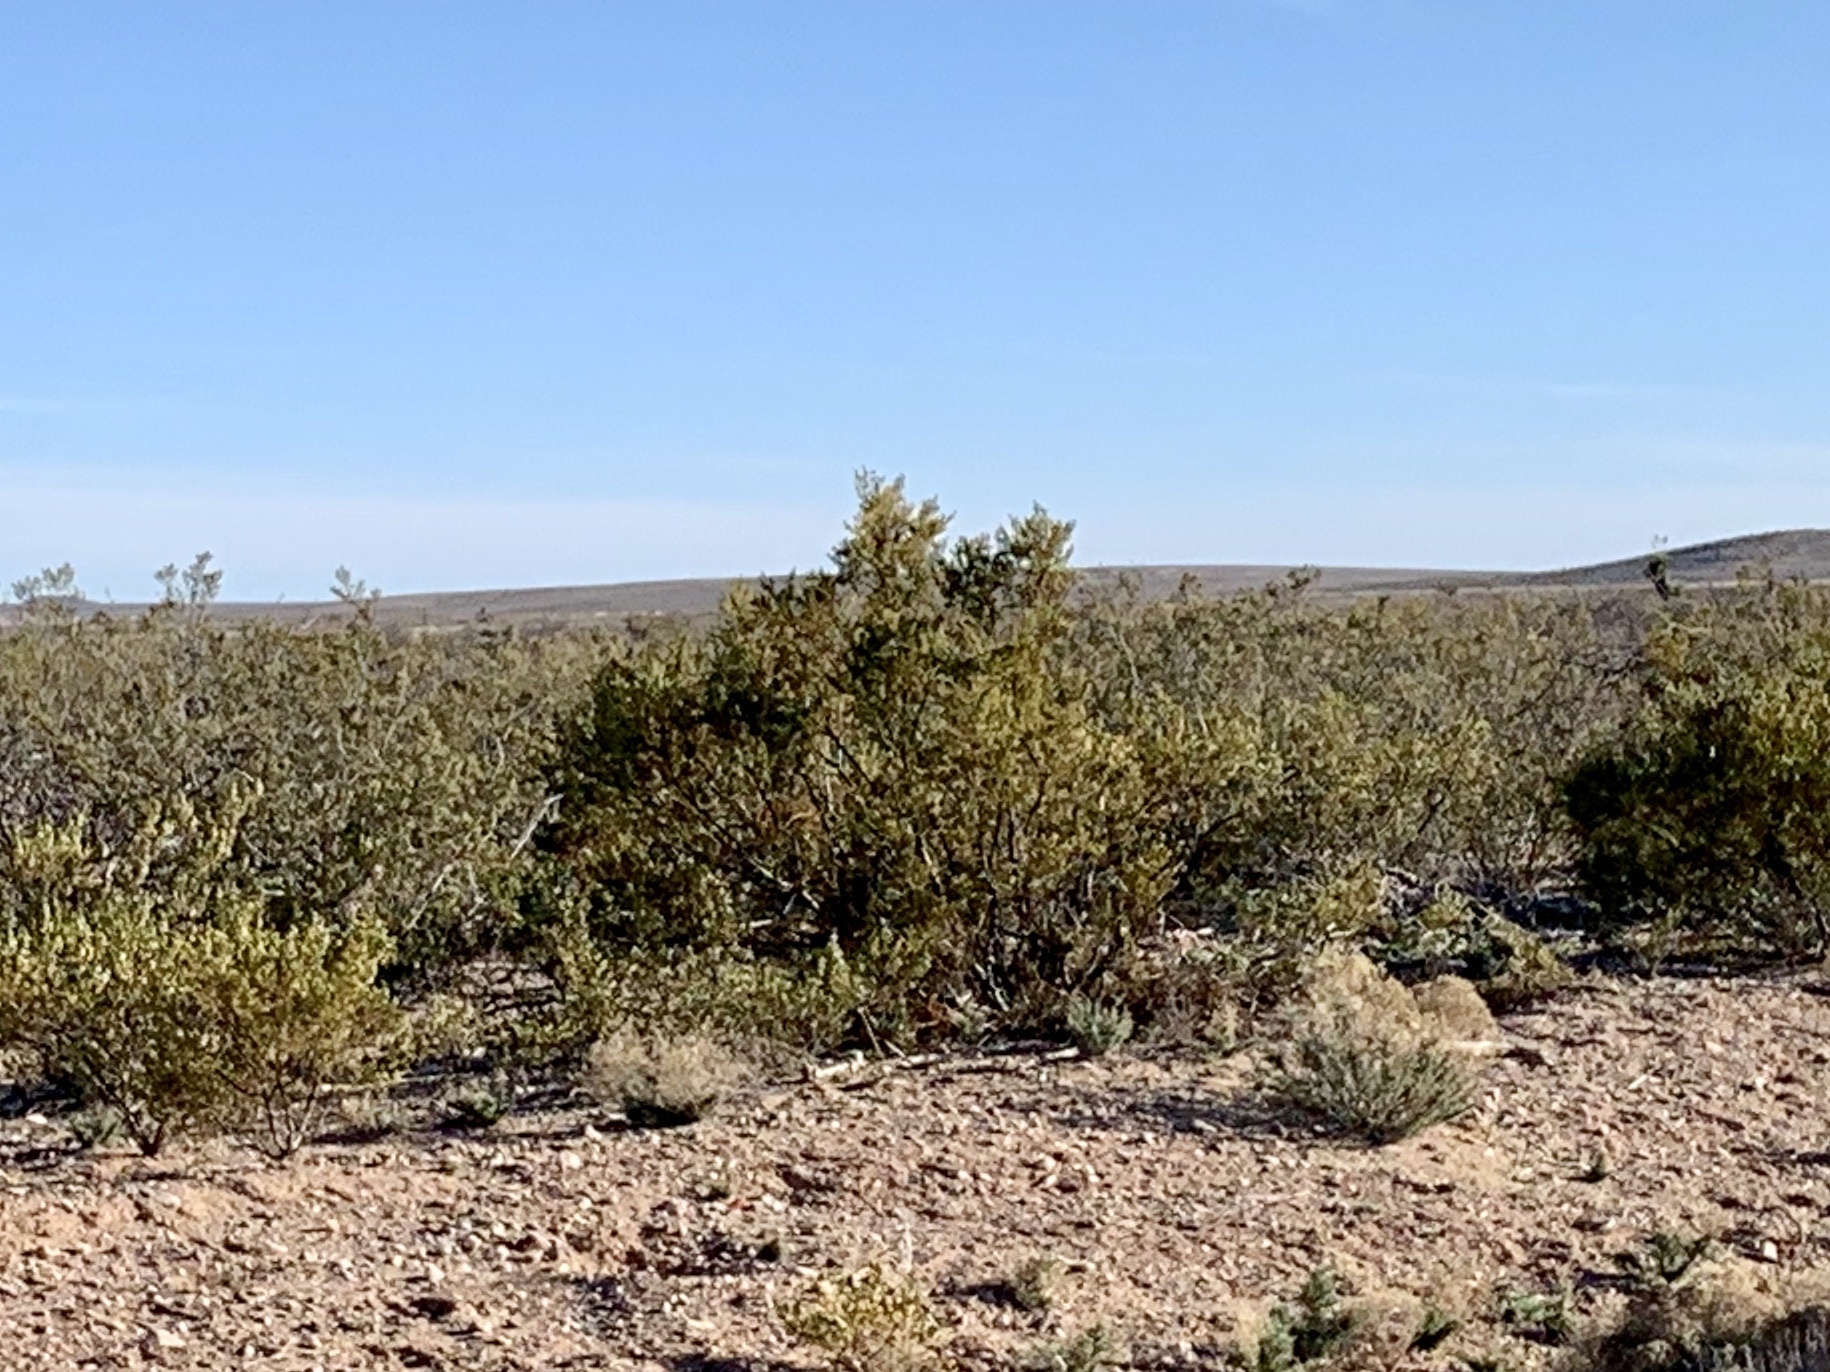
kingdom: Plantae
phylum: Tracheophyta
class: Magnoliopsida
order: Zygophyllales
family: Zygophyllaceae
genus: Larrea
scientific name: Larrea tridentata
